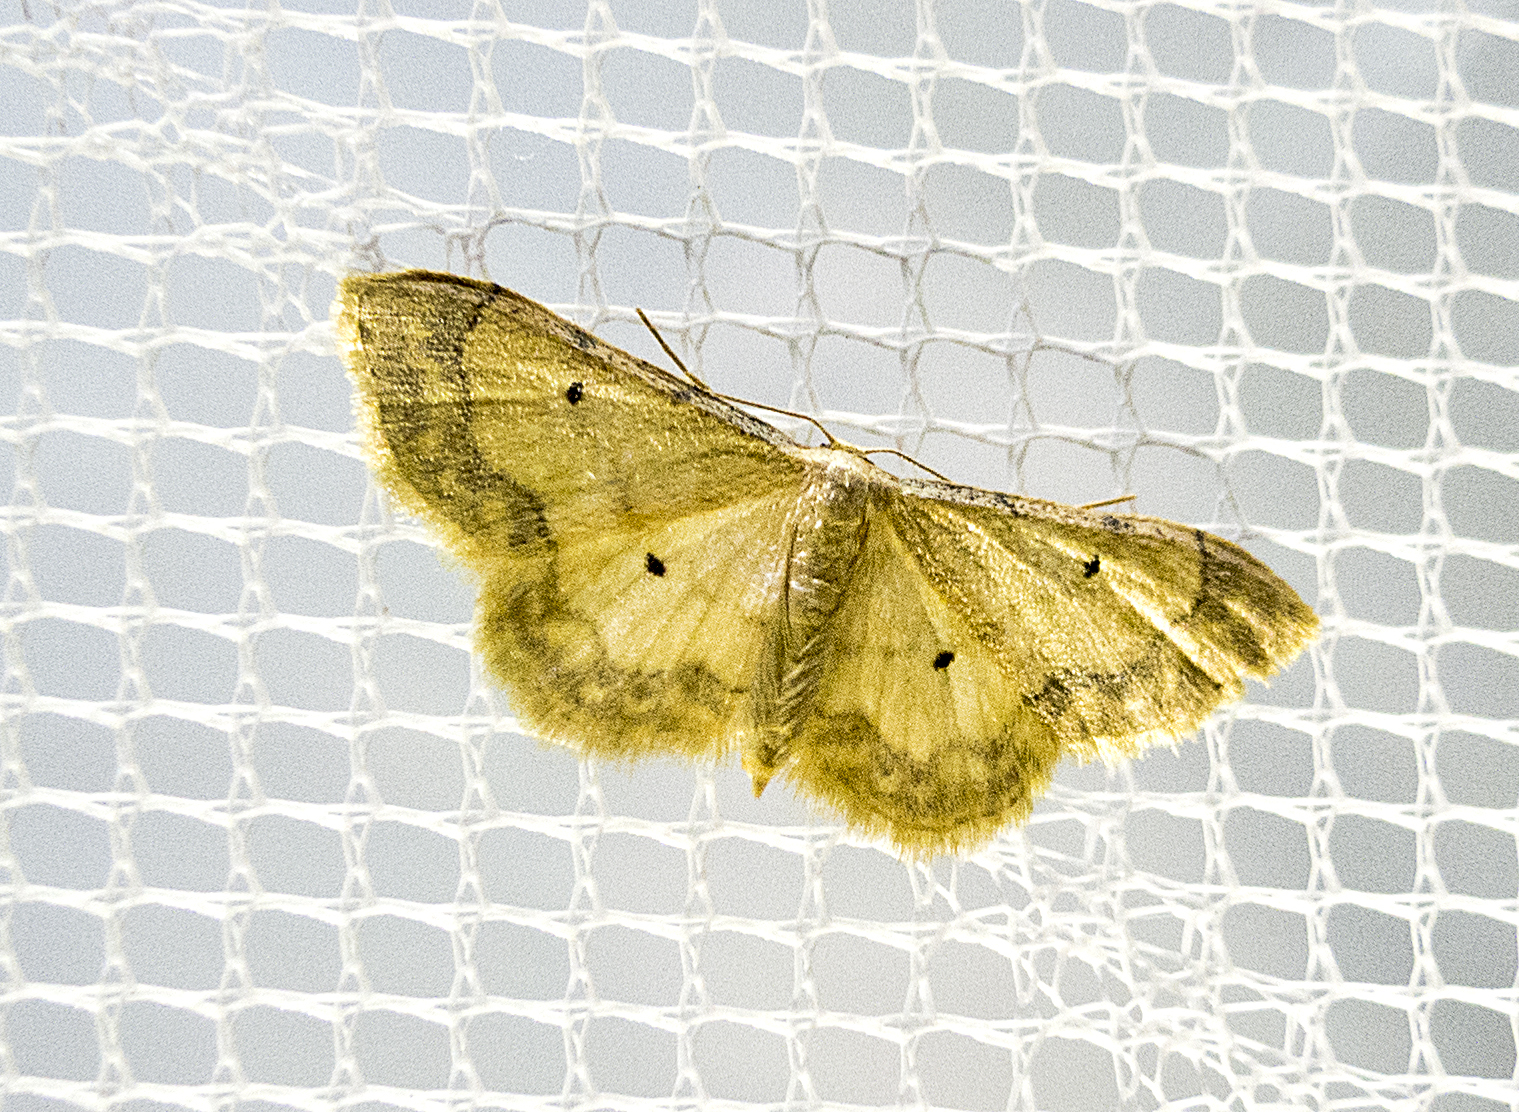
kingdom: Animalia
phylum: Arthropoda
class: Insecta
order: Lepidoptera
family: Geometridae
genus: Idaea
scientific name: Idaea politaria
